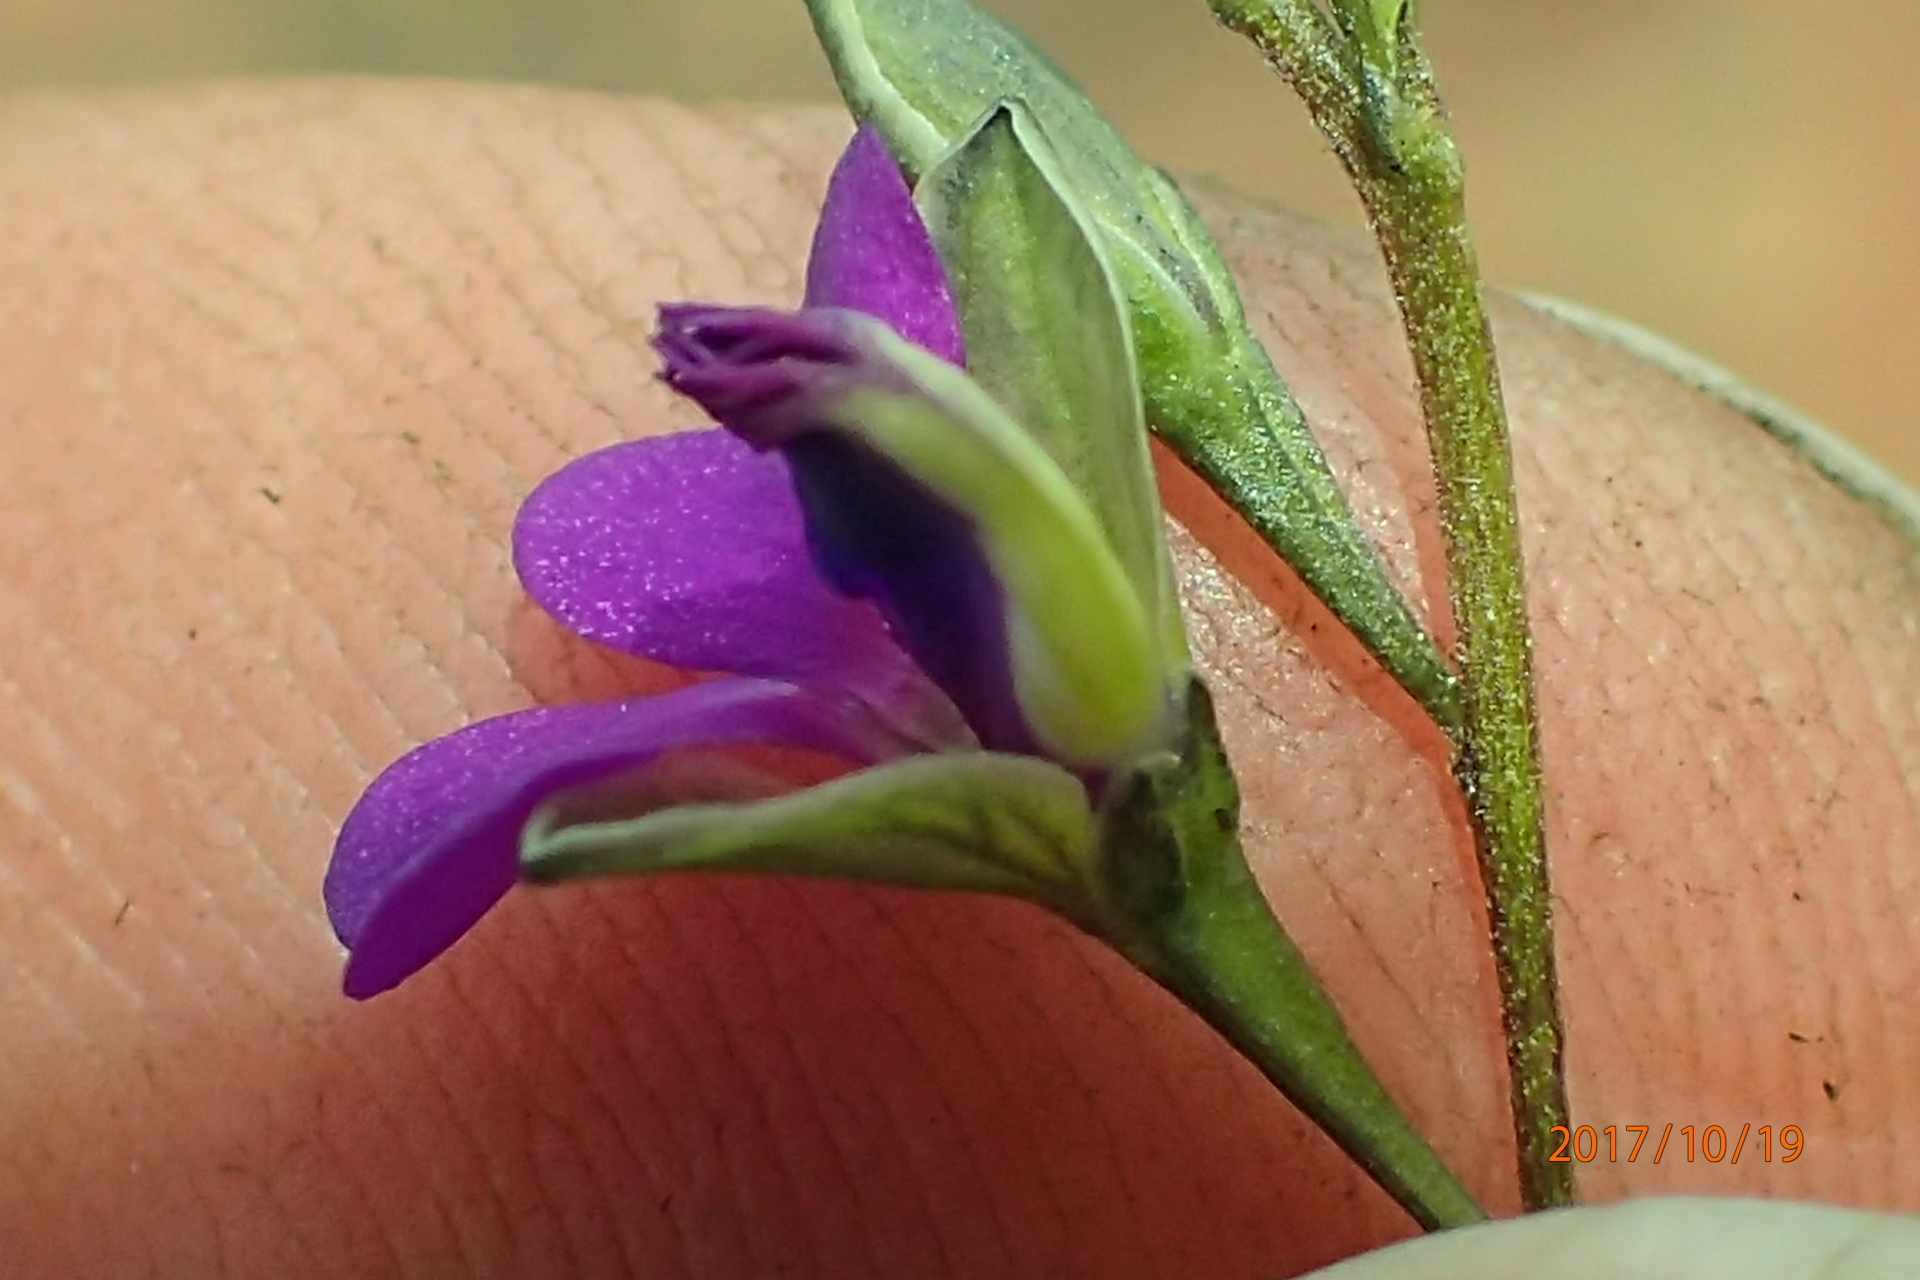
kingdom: Plantae
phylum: Tracheophyta
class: Magnoliopsida
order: Fabales
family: Polygalaceae
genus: Polygala
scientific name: Polygala rehmannii
